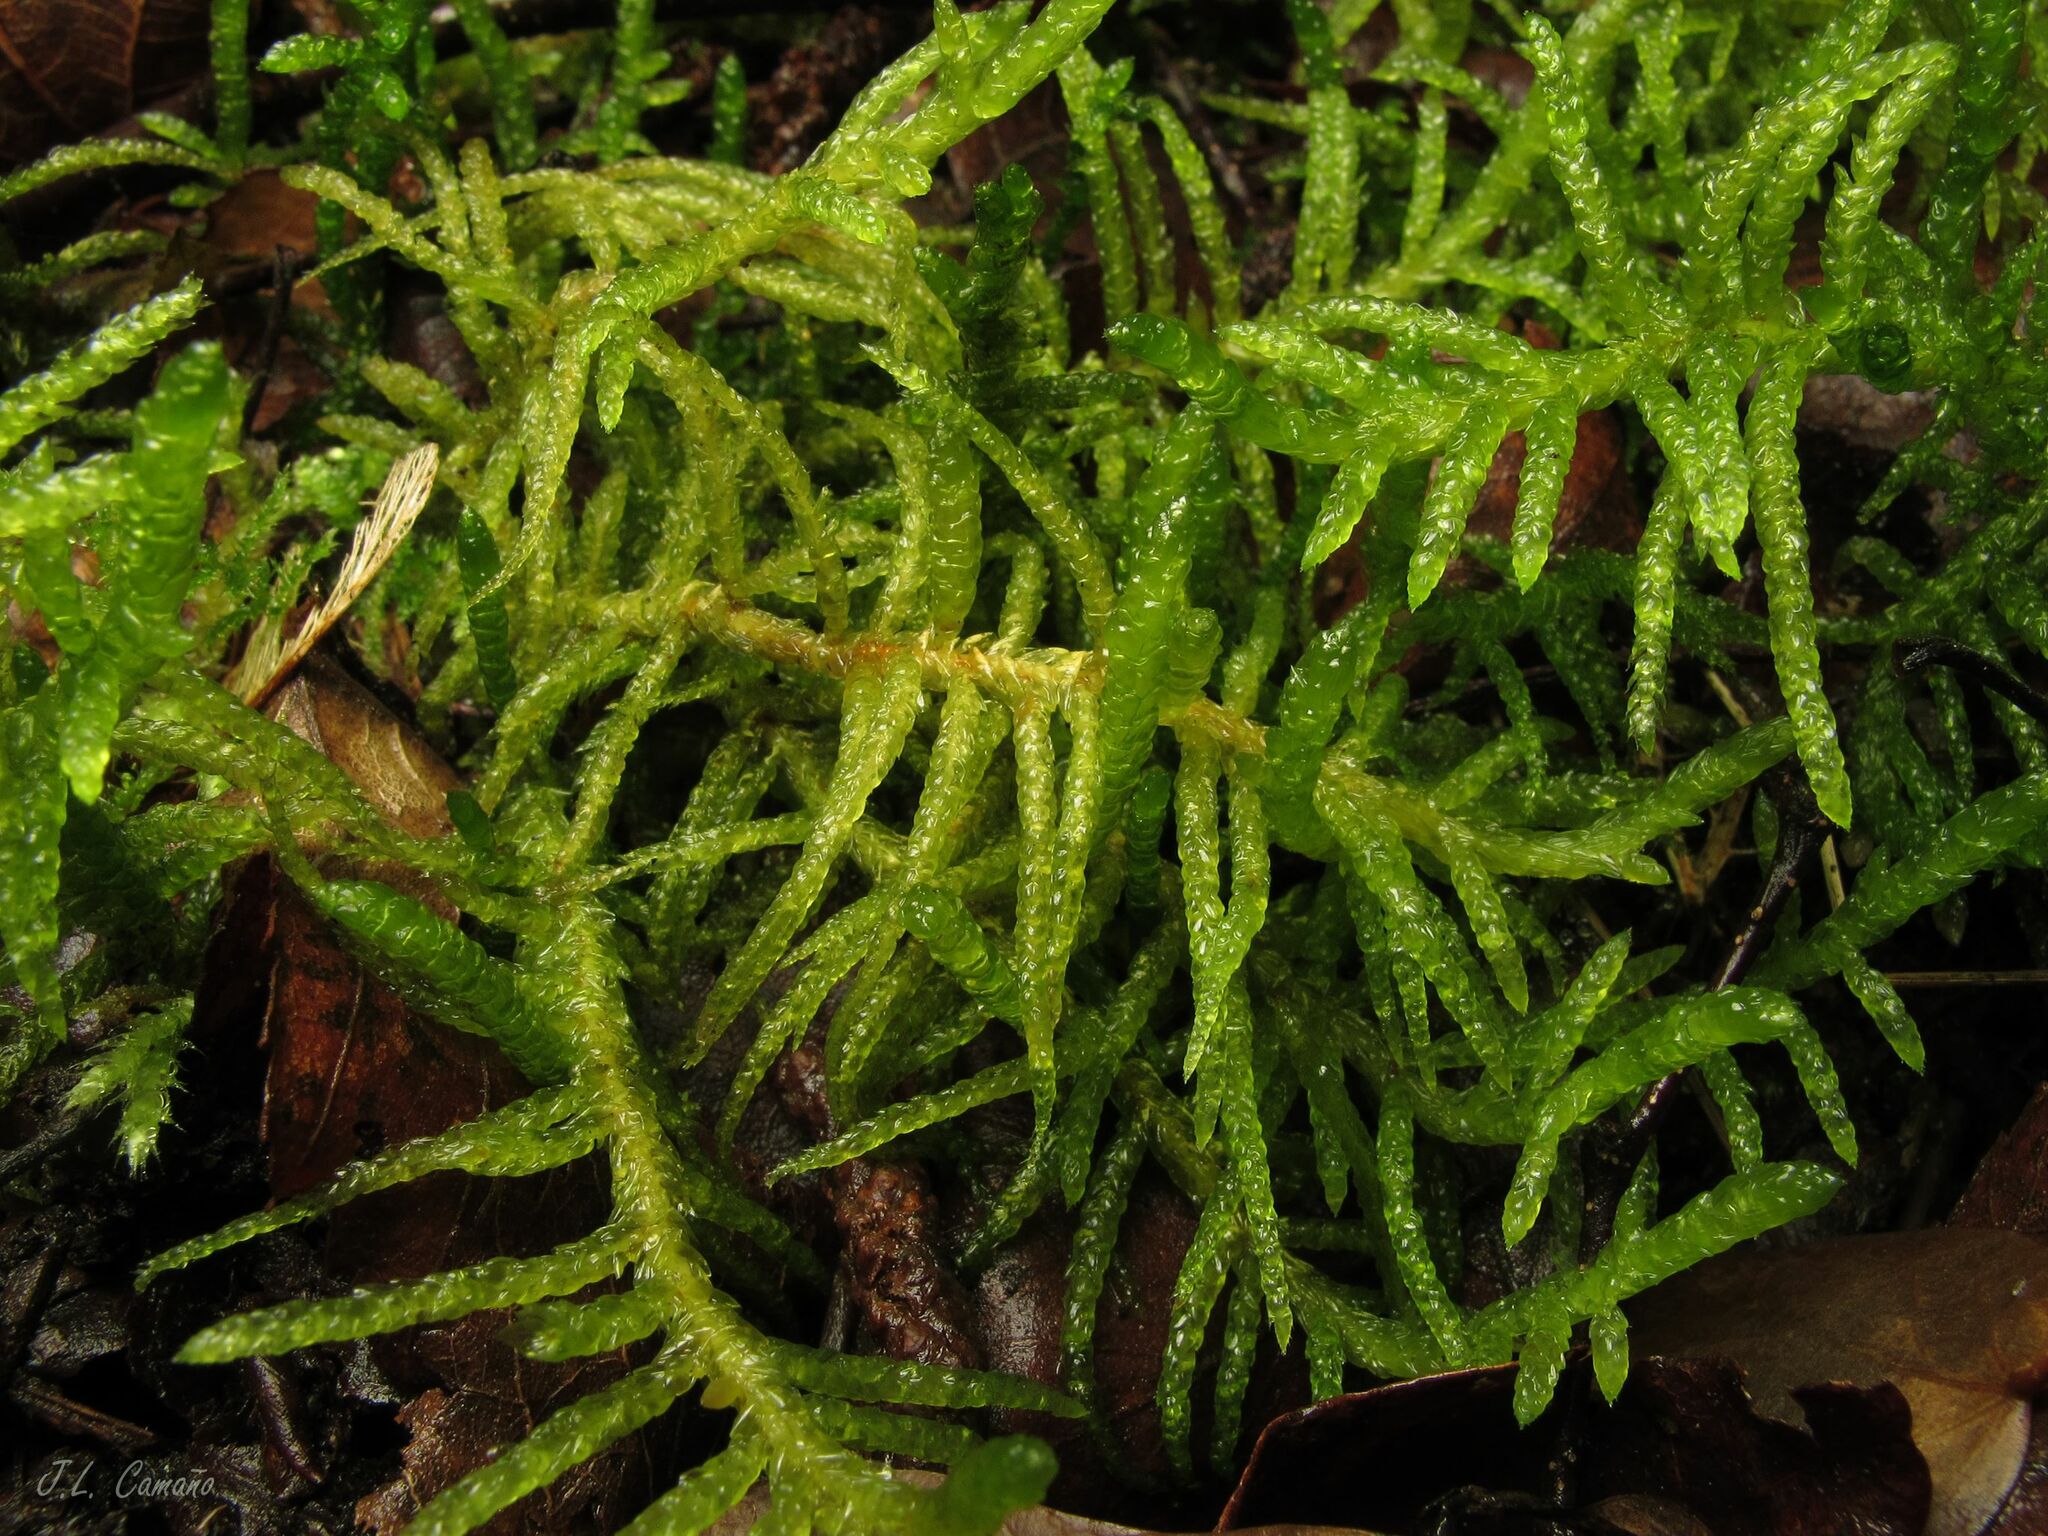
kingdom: Plantae
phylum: Bryophyta
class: Bryopsida
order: Hypnales
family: Brachytheciaceae
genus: Pseudoscleropodium
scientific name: Pseudoscleropodium purum
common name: Neat feather-moss
